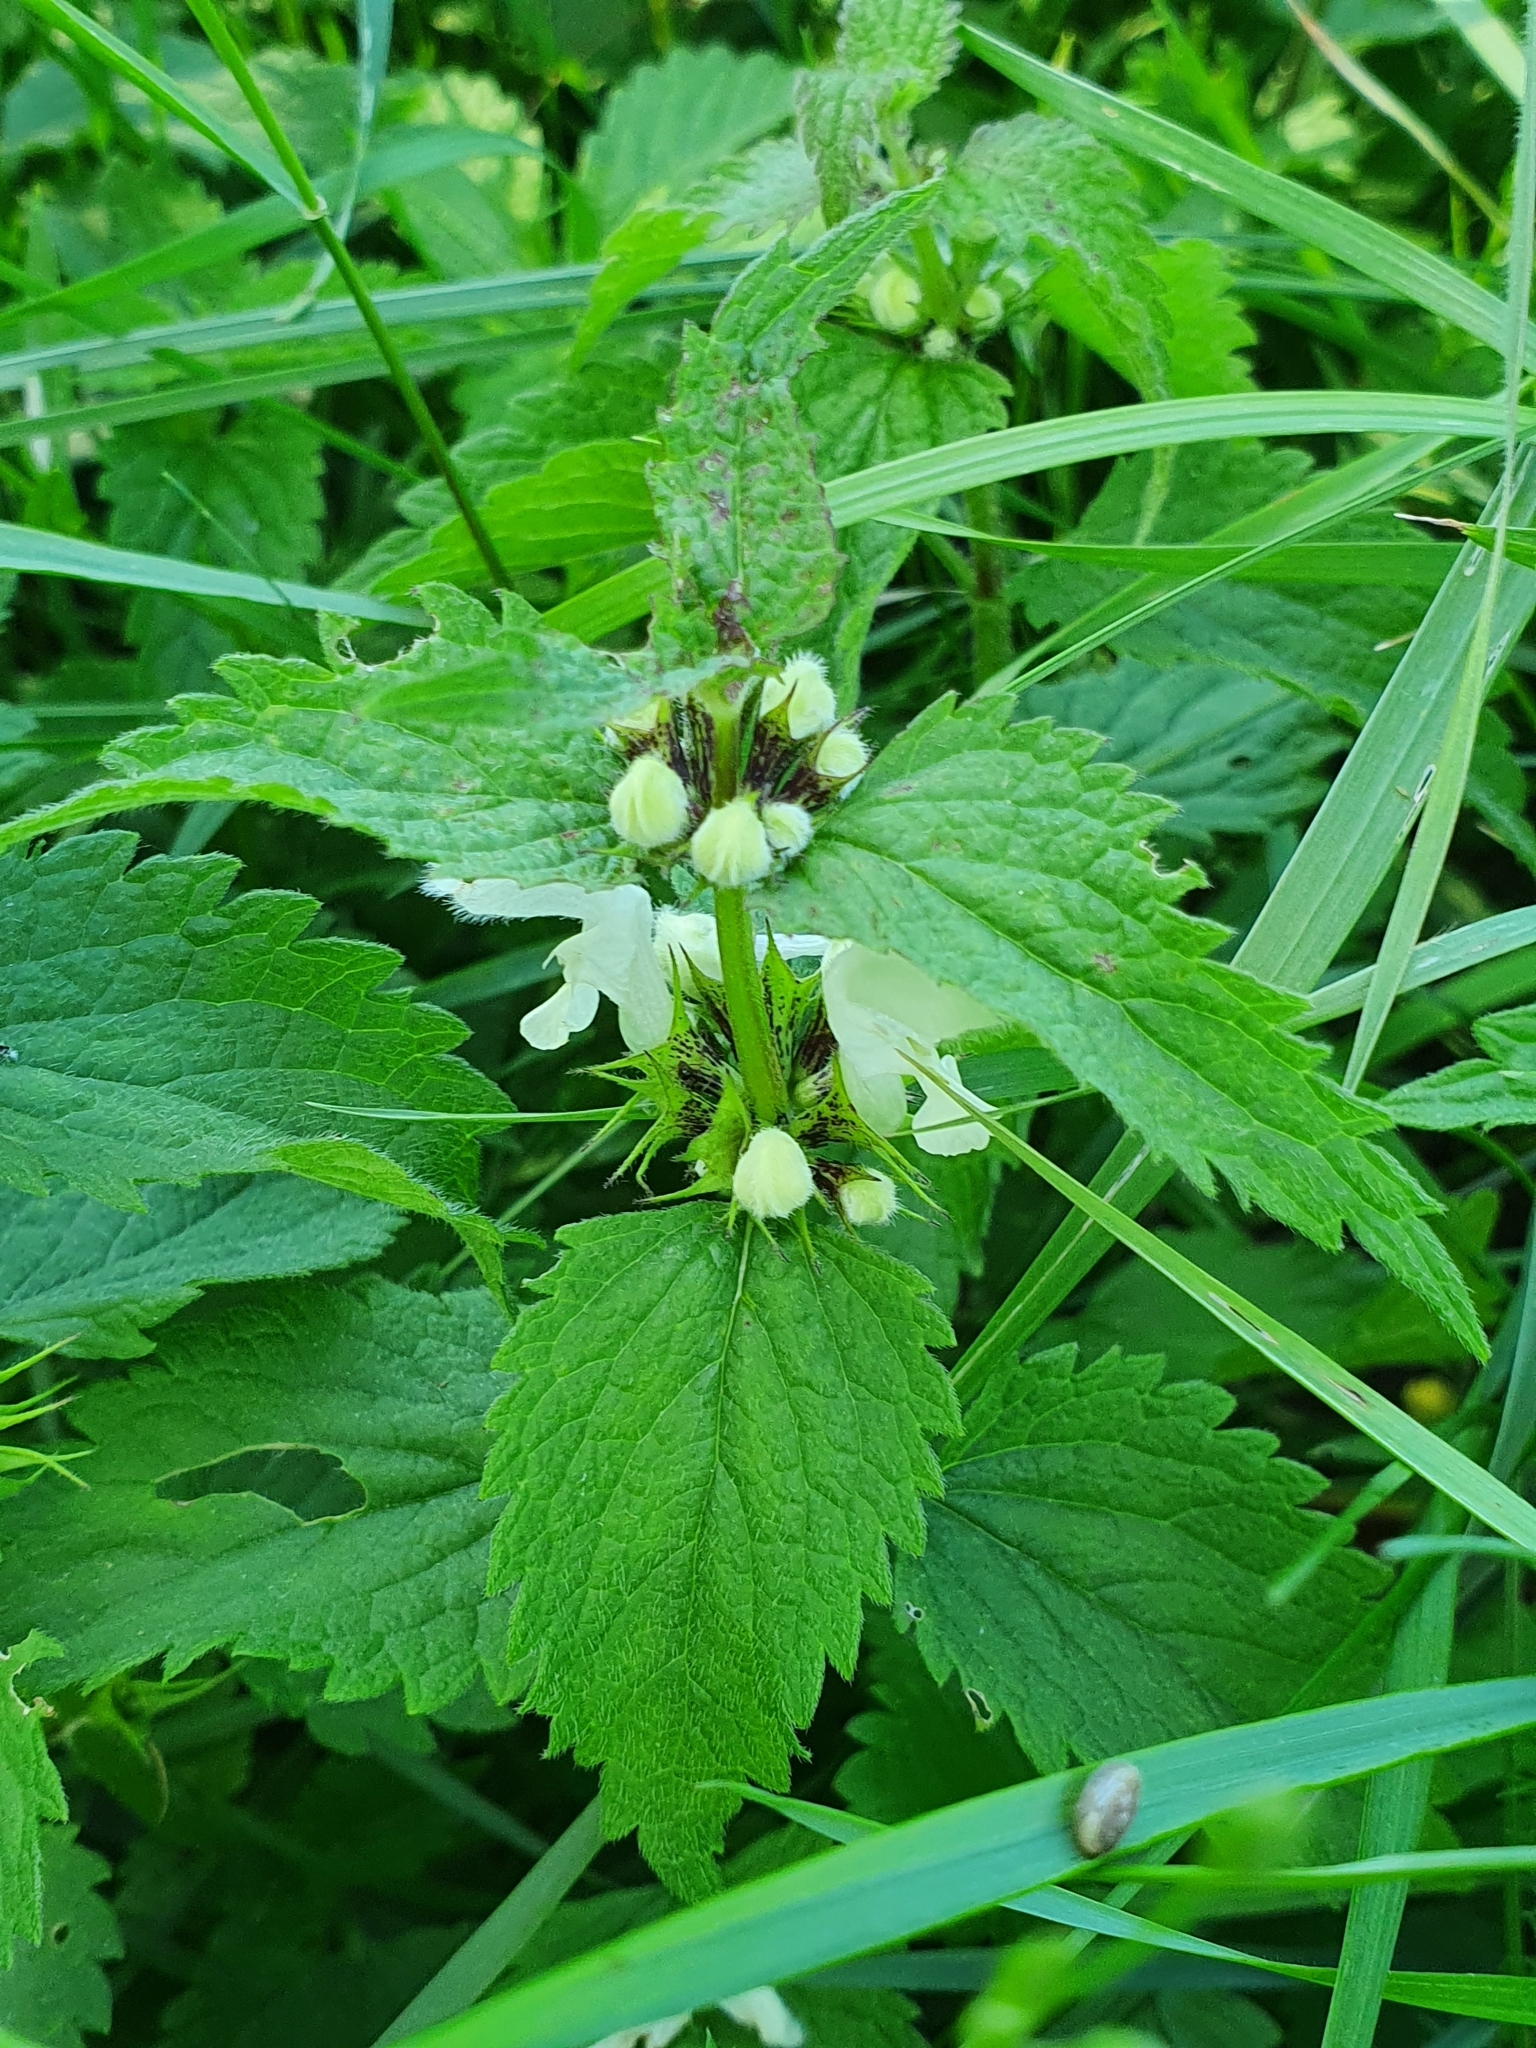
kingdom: Plantae
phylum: Tracheophyta
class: Magnoliopsida
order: Lamiales
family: Lamiaceae
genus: Lamium
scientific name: Lamium album
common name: White dead-nettle
